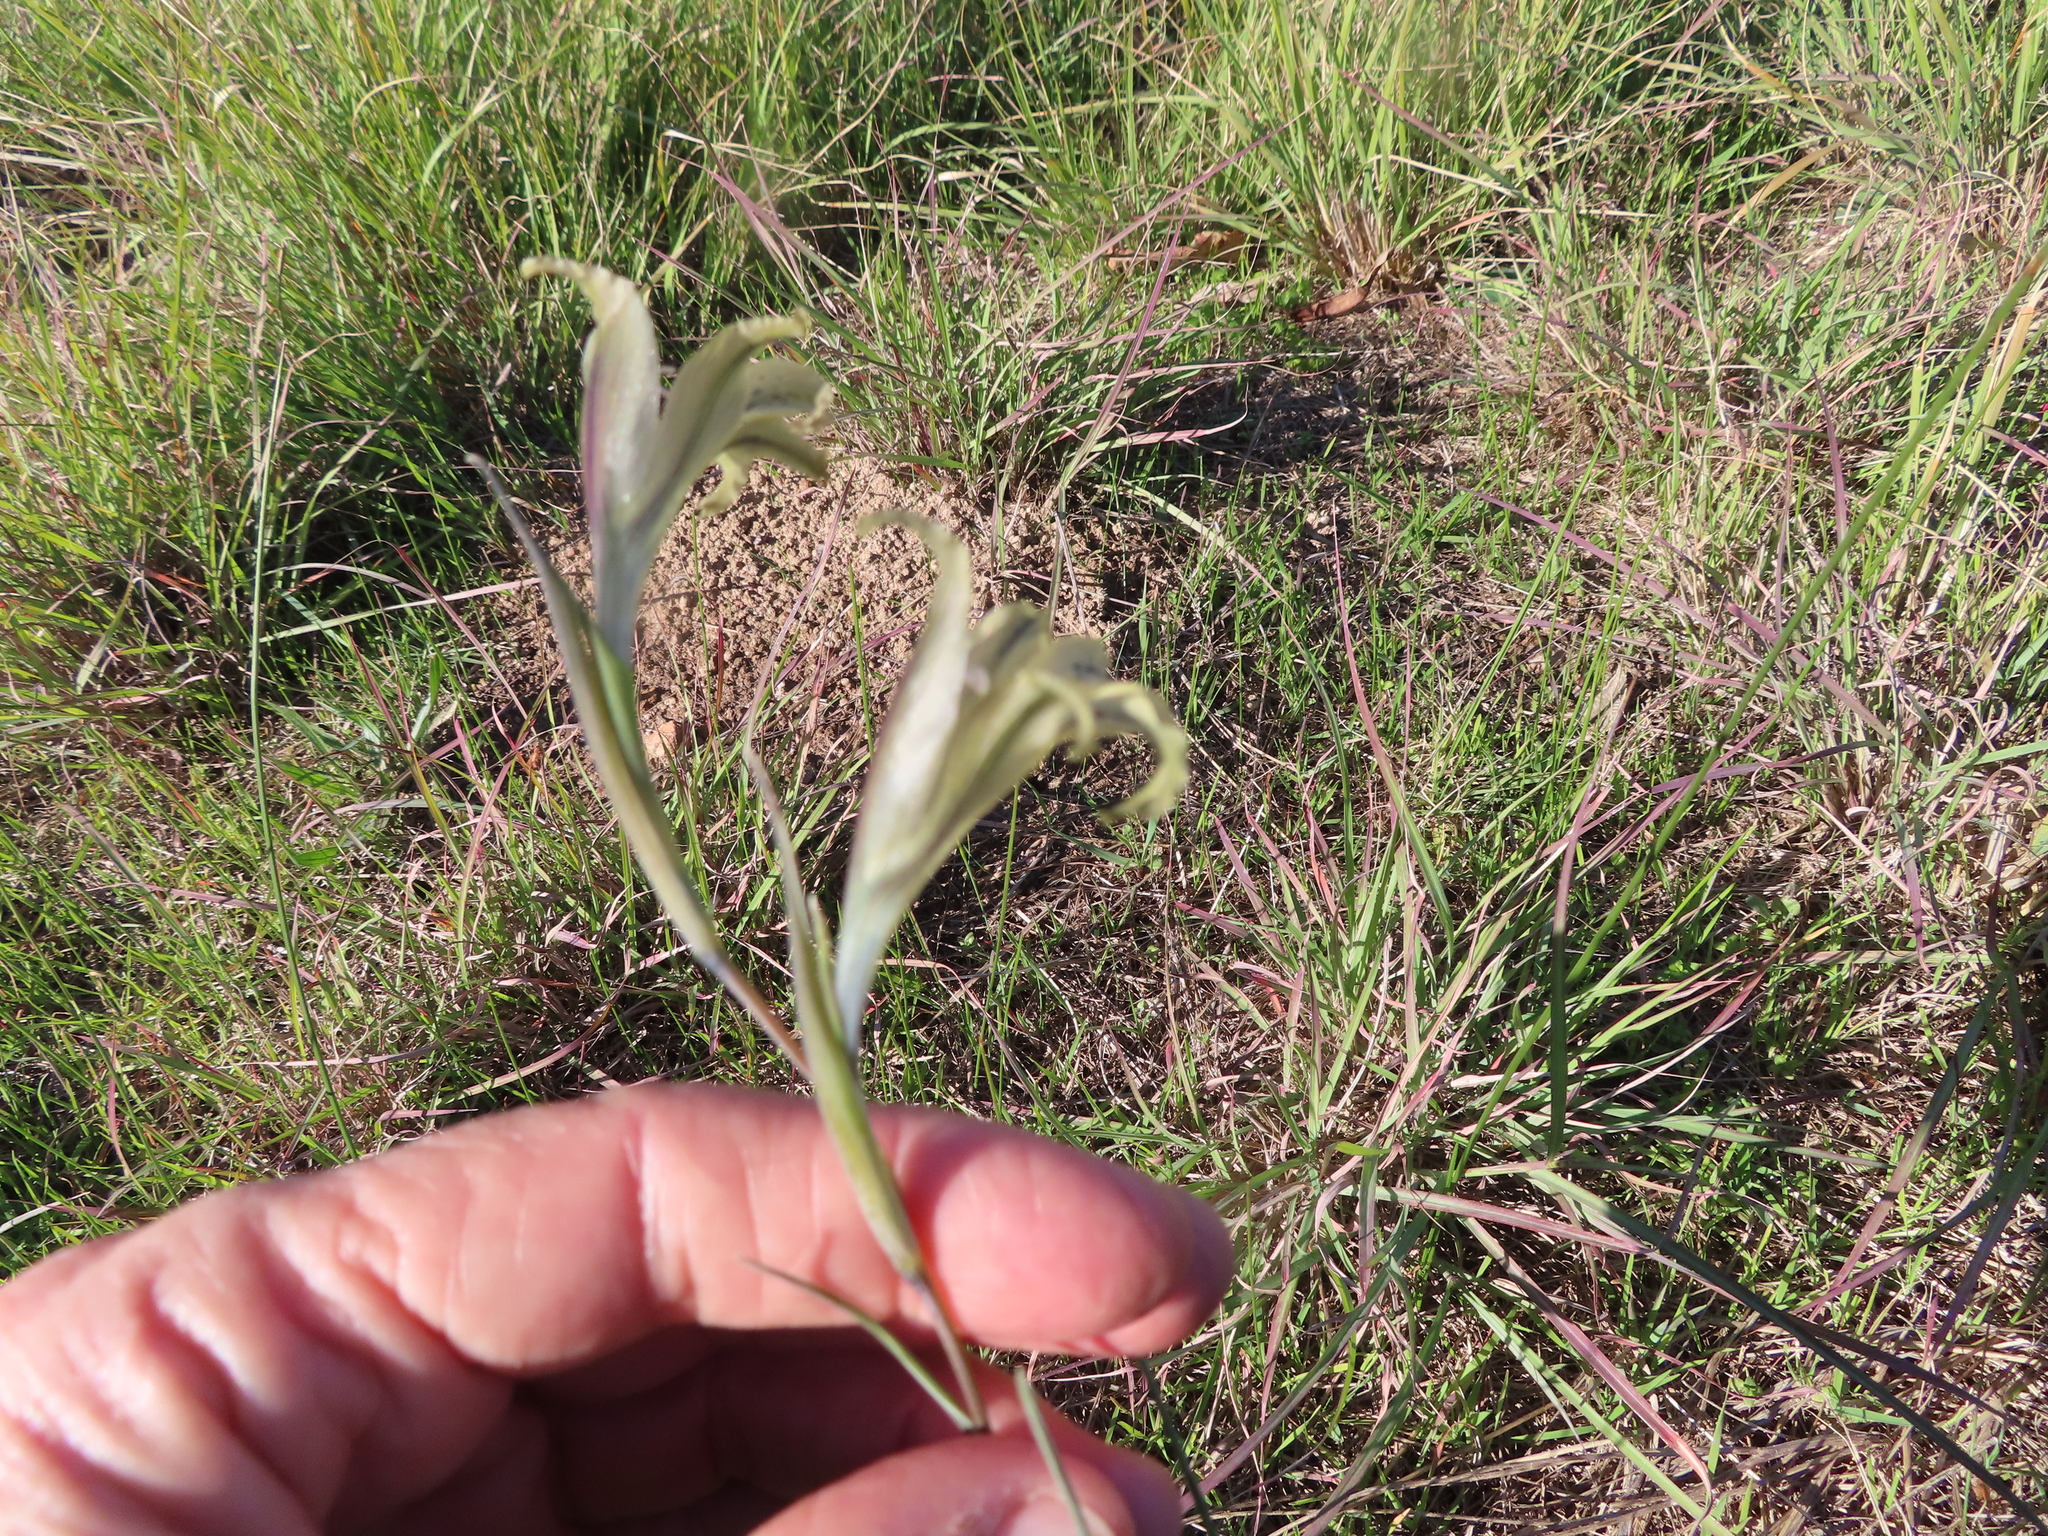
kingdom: Plantae
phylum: Tracheophyta
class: Liliopsida
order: Asparagales
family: Iridaceae
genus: Gladiolus
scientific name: Gladiolus recurvus
